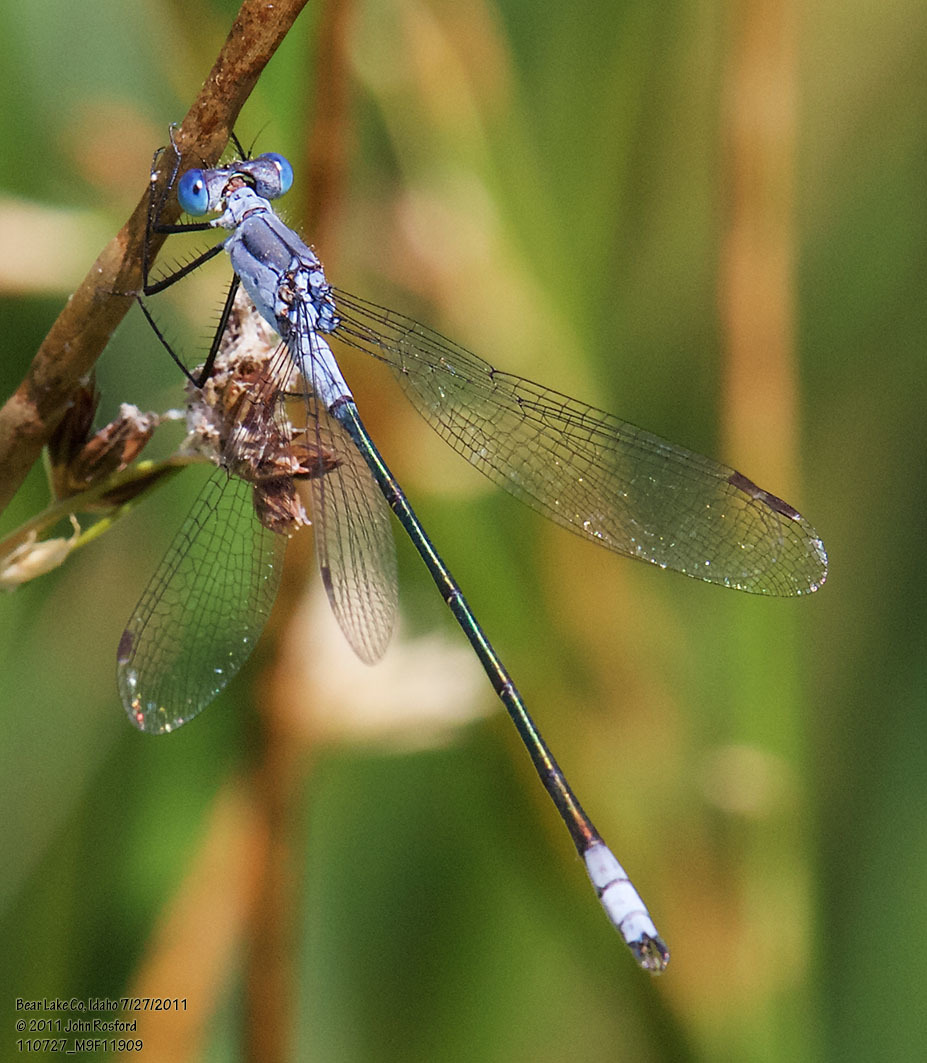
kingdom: Animalia
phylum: Arthropoda
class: Insecta
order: Odonata
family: Lestidae
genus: Lestes
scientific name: Lestes disjunctus
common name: Northern spreadwing
